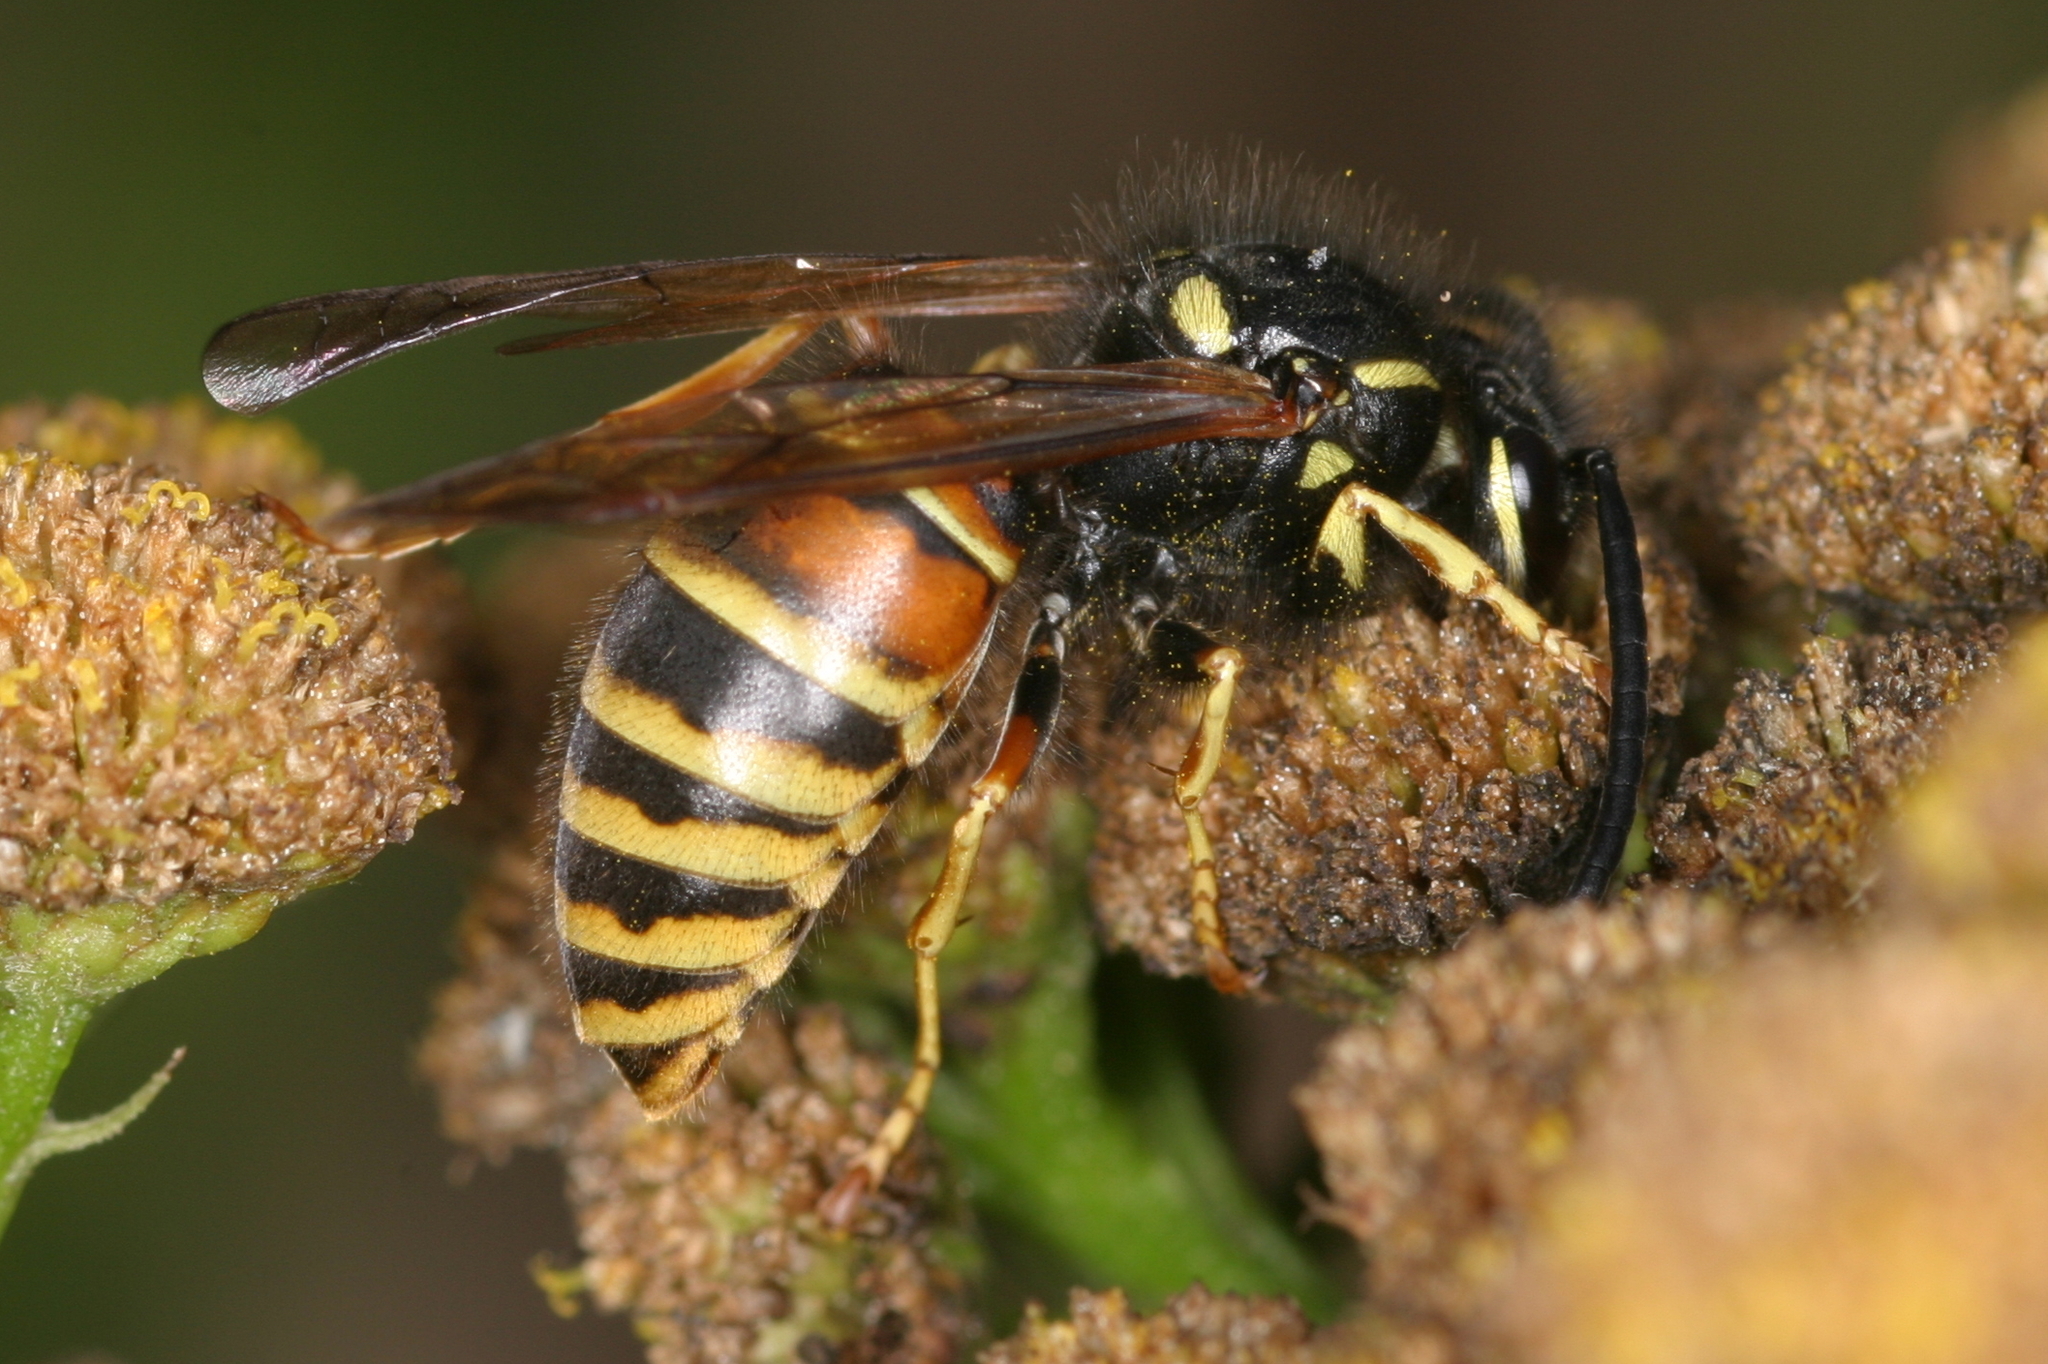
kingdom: Animalia
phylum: Arthropoda
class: Insecta
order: Hymenoptera
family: Vespidae
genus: Vespula
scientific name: Vespula rufa
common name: Red wasp
